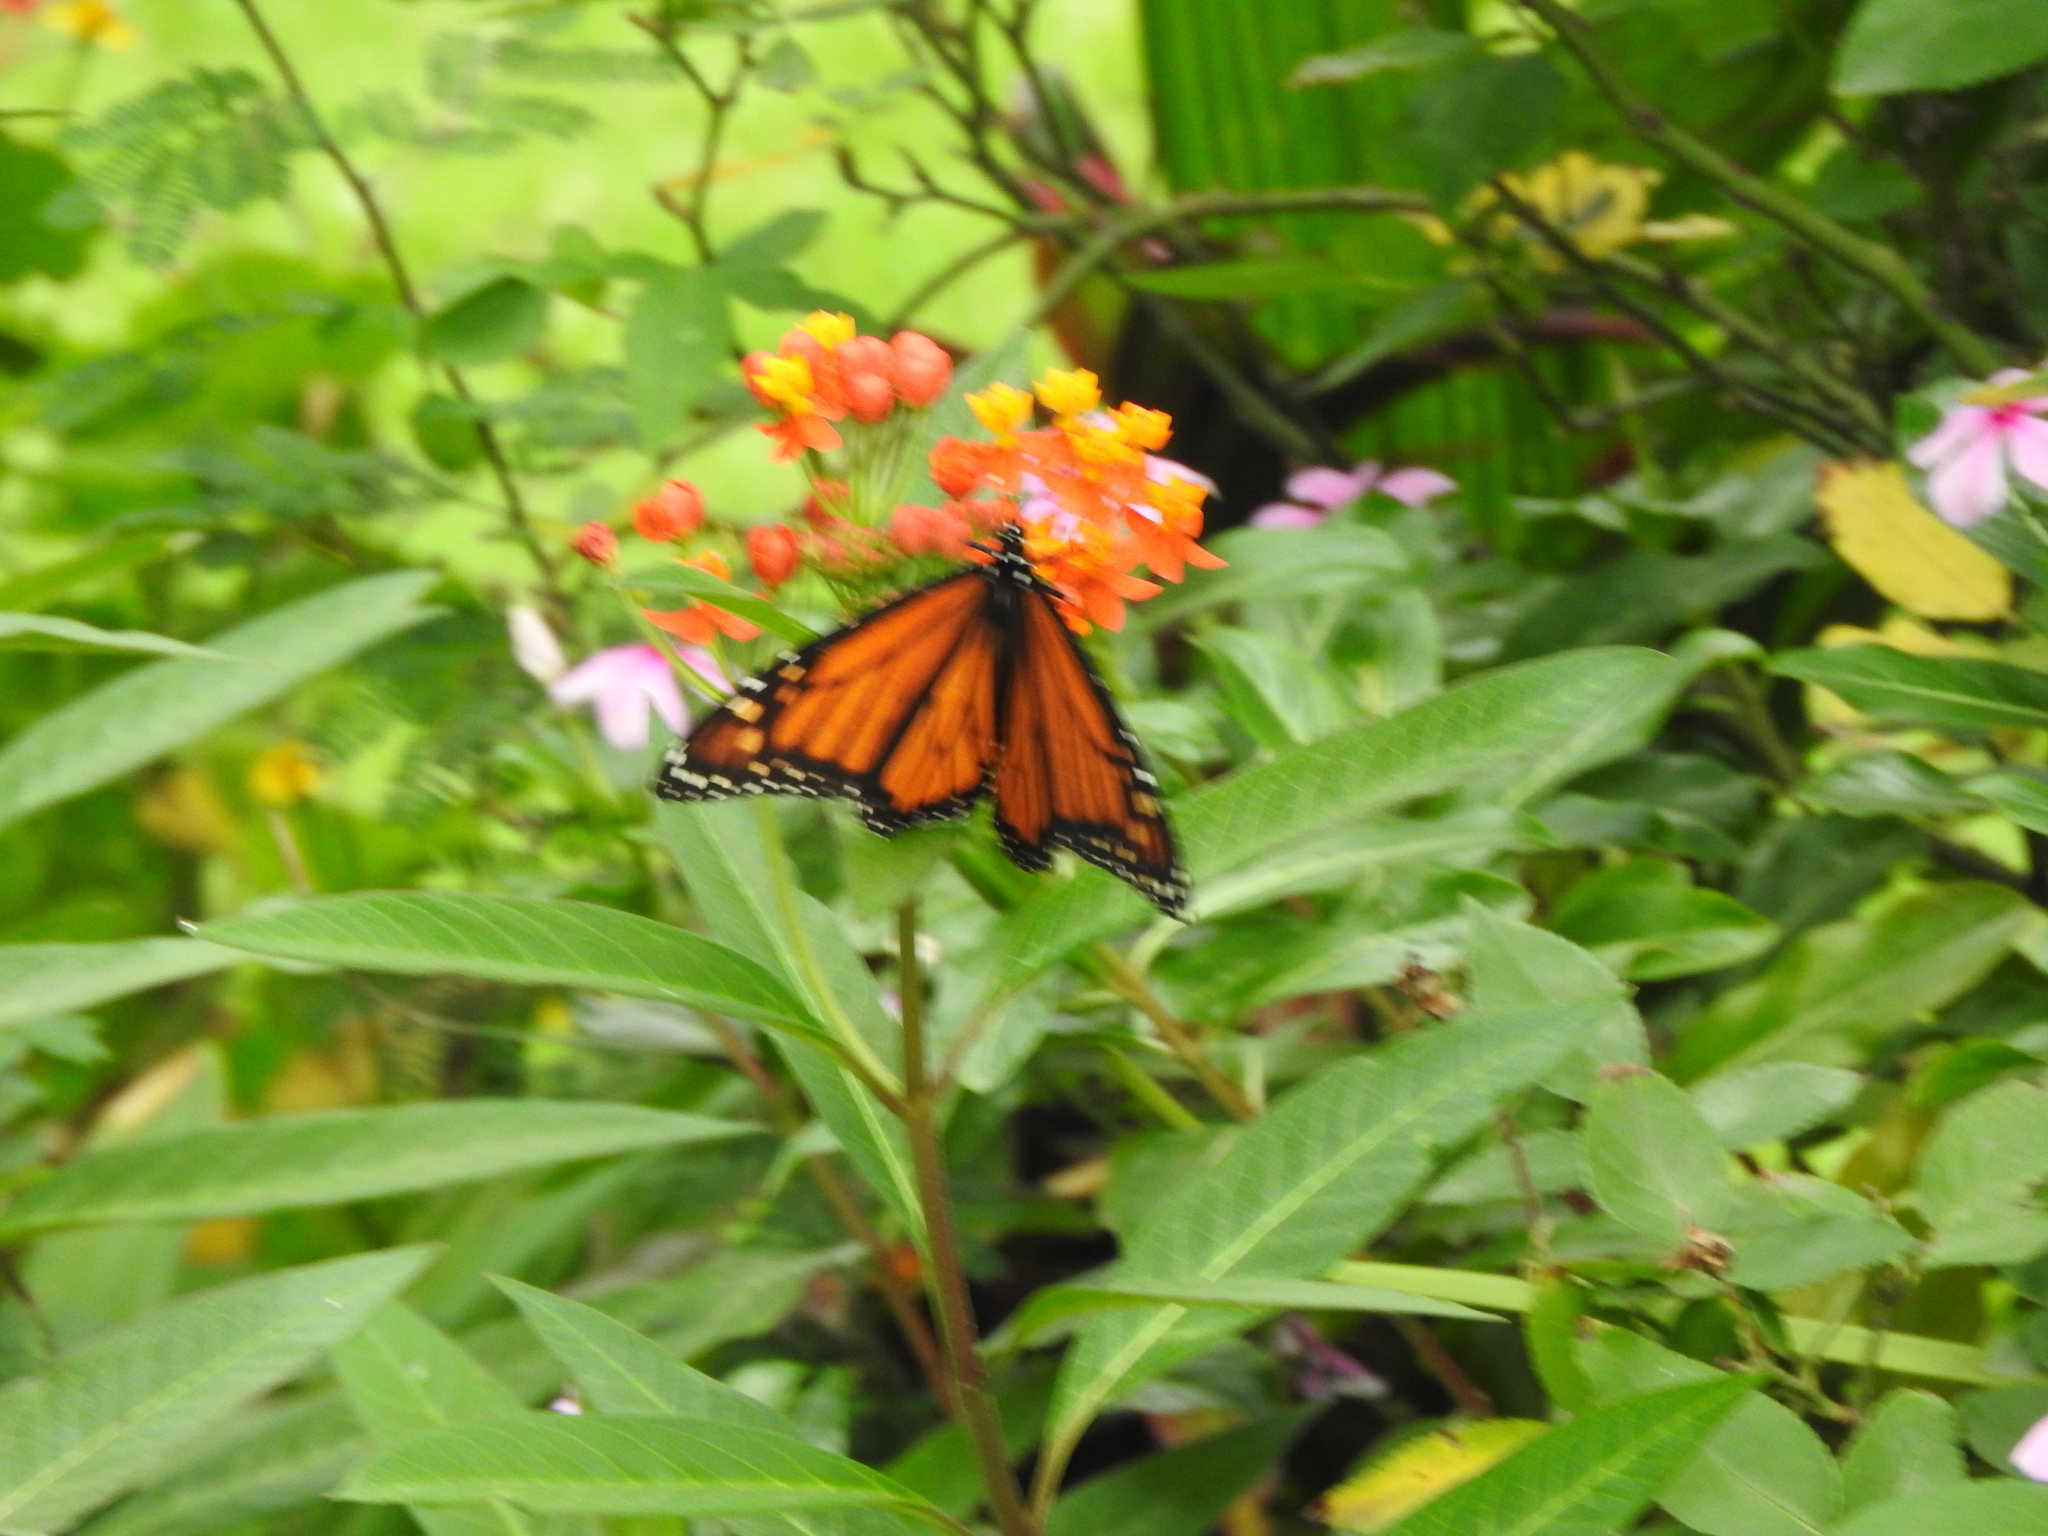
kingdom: Animalia
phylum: Arthropoda
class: Insecta
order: Lepidoptera
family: Nymphalidae
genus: Danaus
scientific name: Danaus plexippus
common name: Monarch
